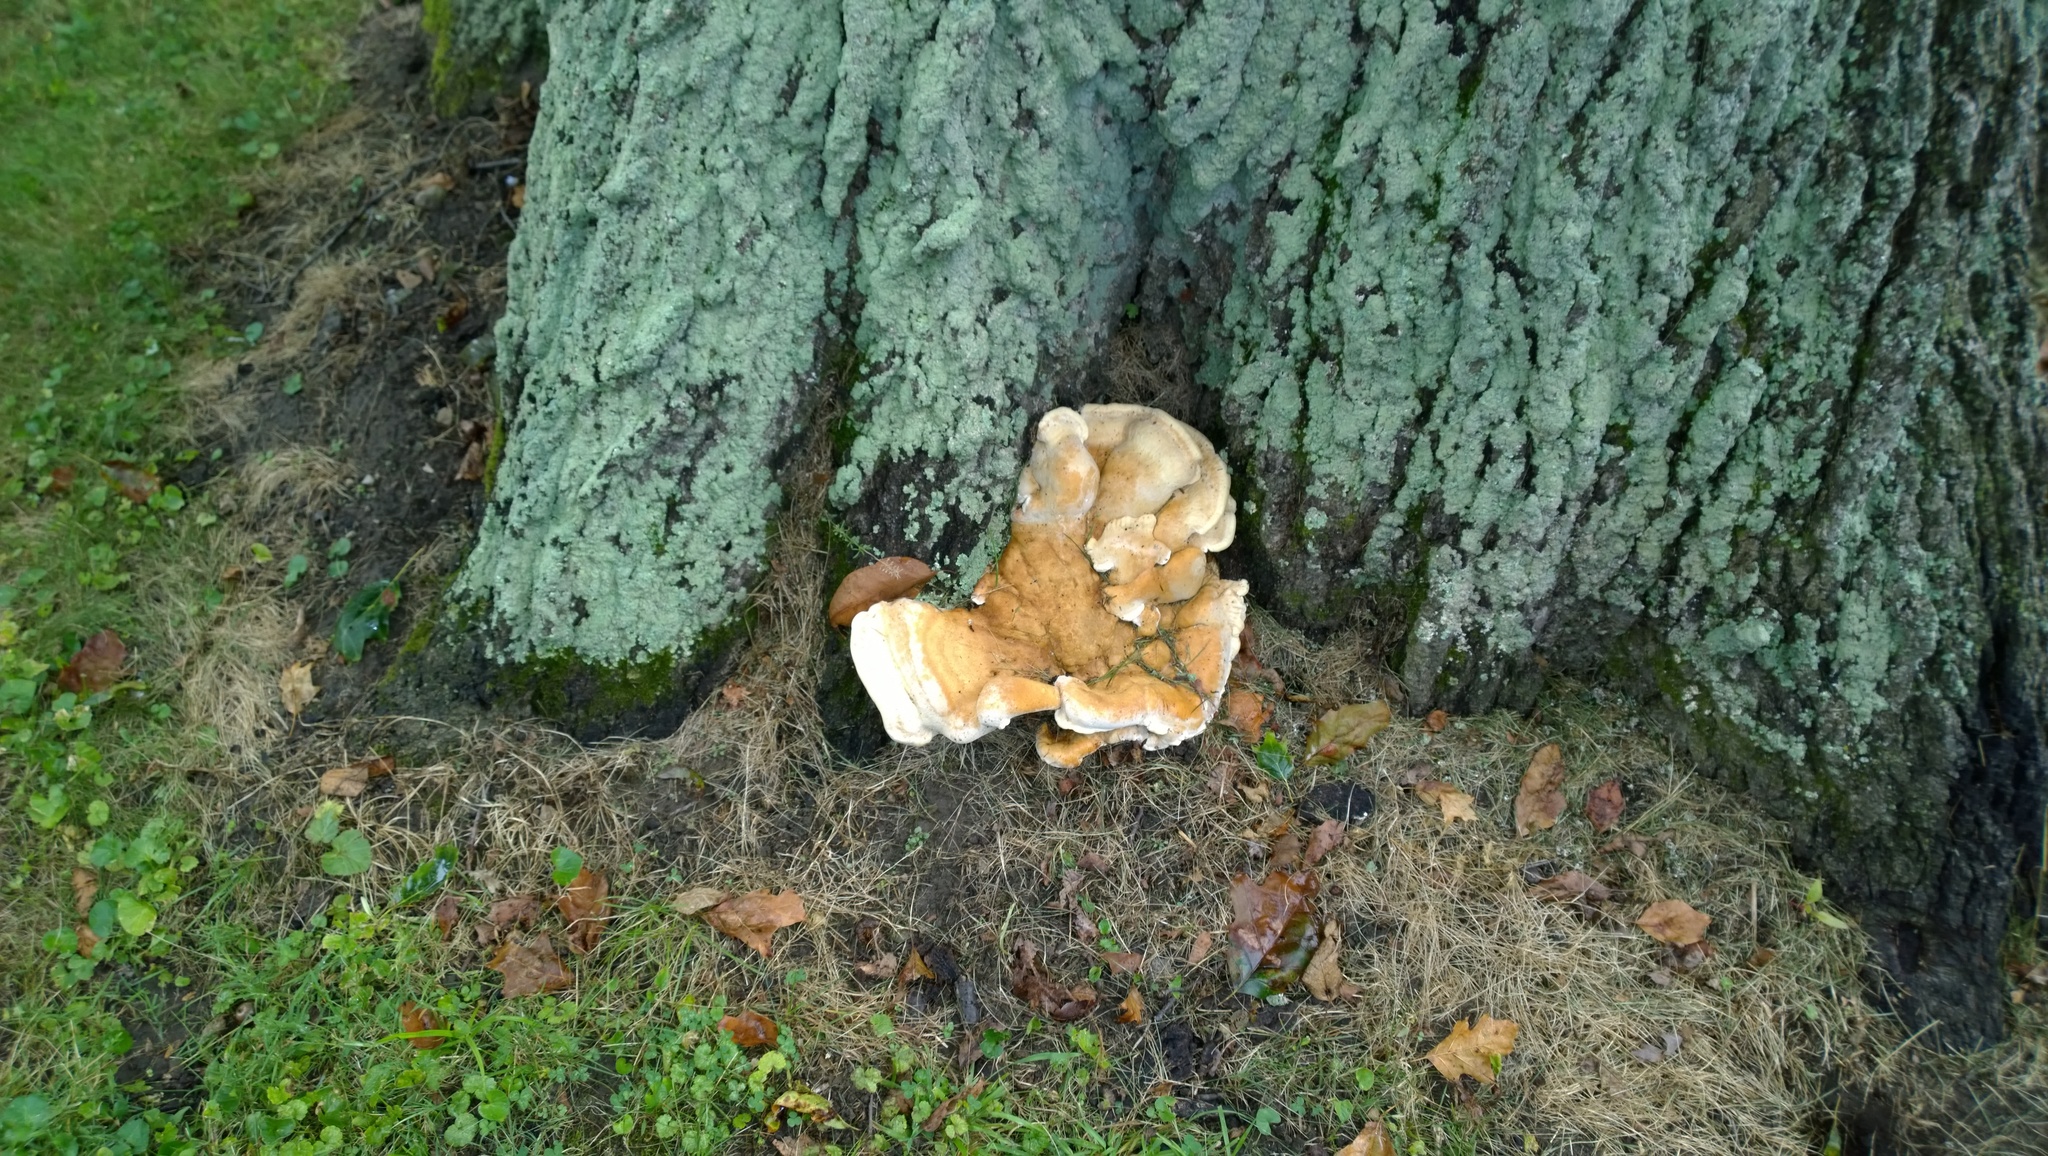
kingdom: Fungi
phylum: Basidiomycota
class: Agaricomycetes
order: Russulales
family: Bondarzewiaceae
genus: Bondarzewia
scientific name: Bondarzewia berkeleyi
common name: Berkeley's polypore
